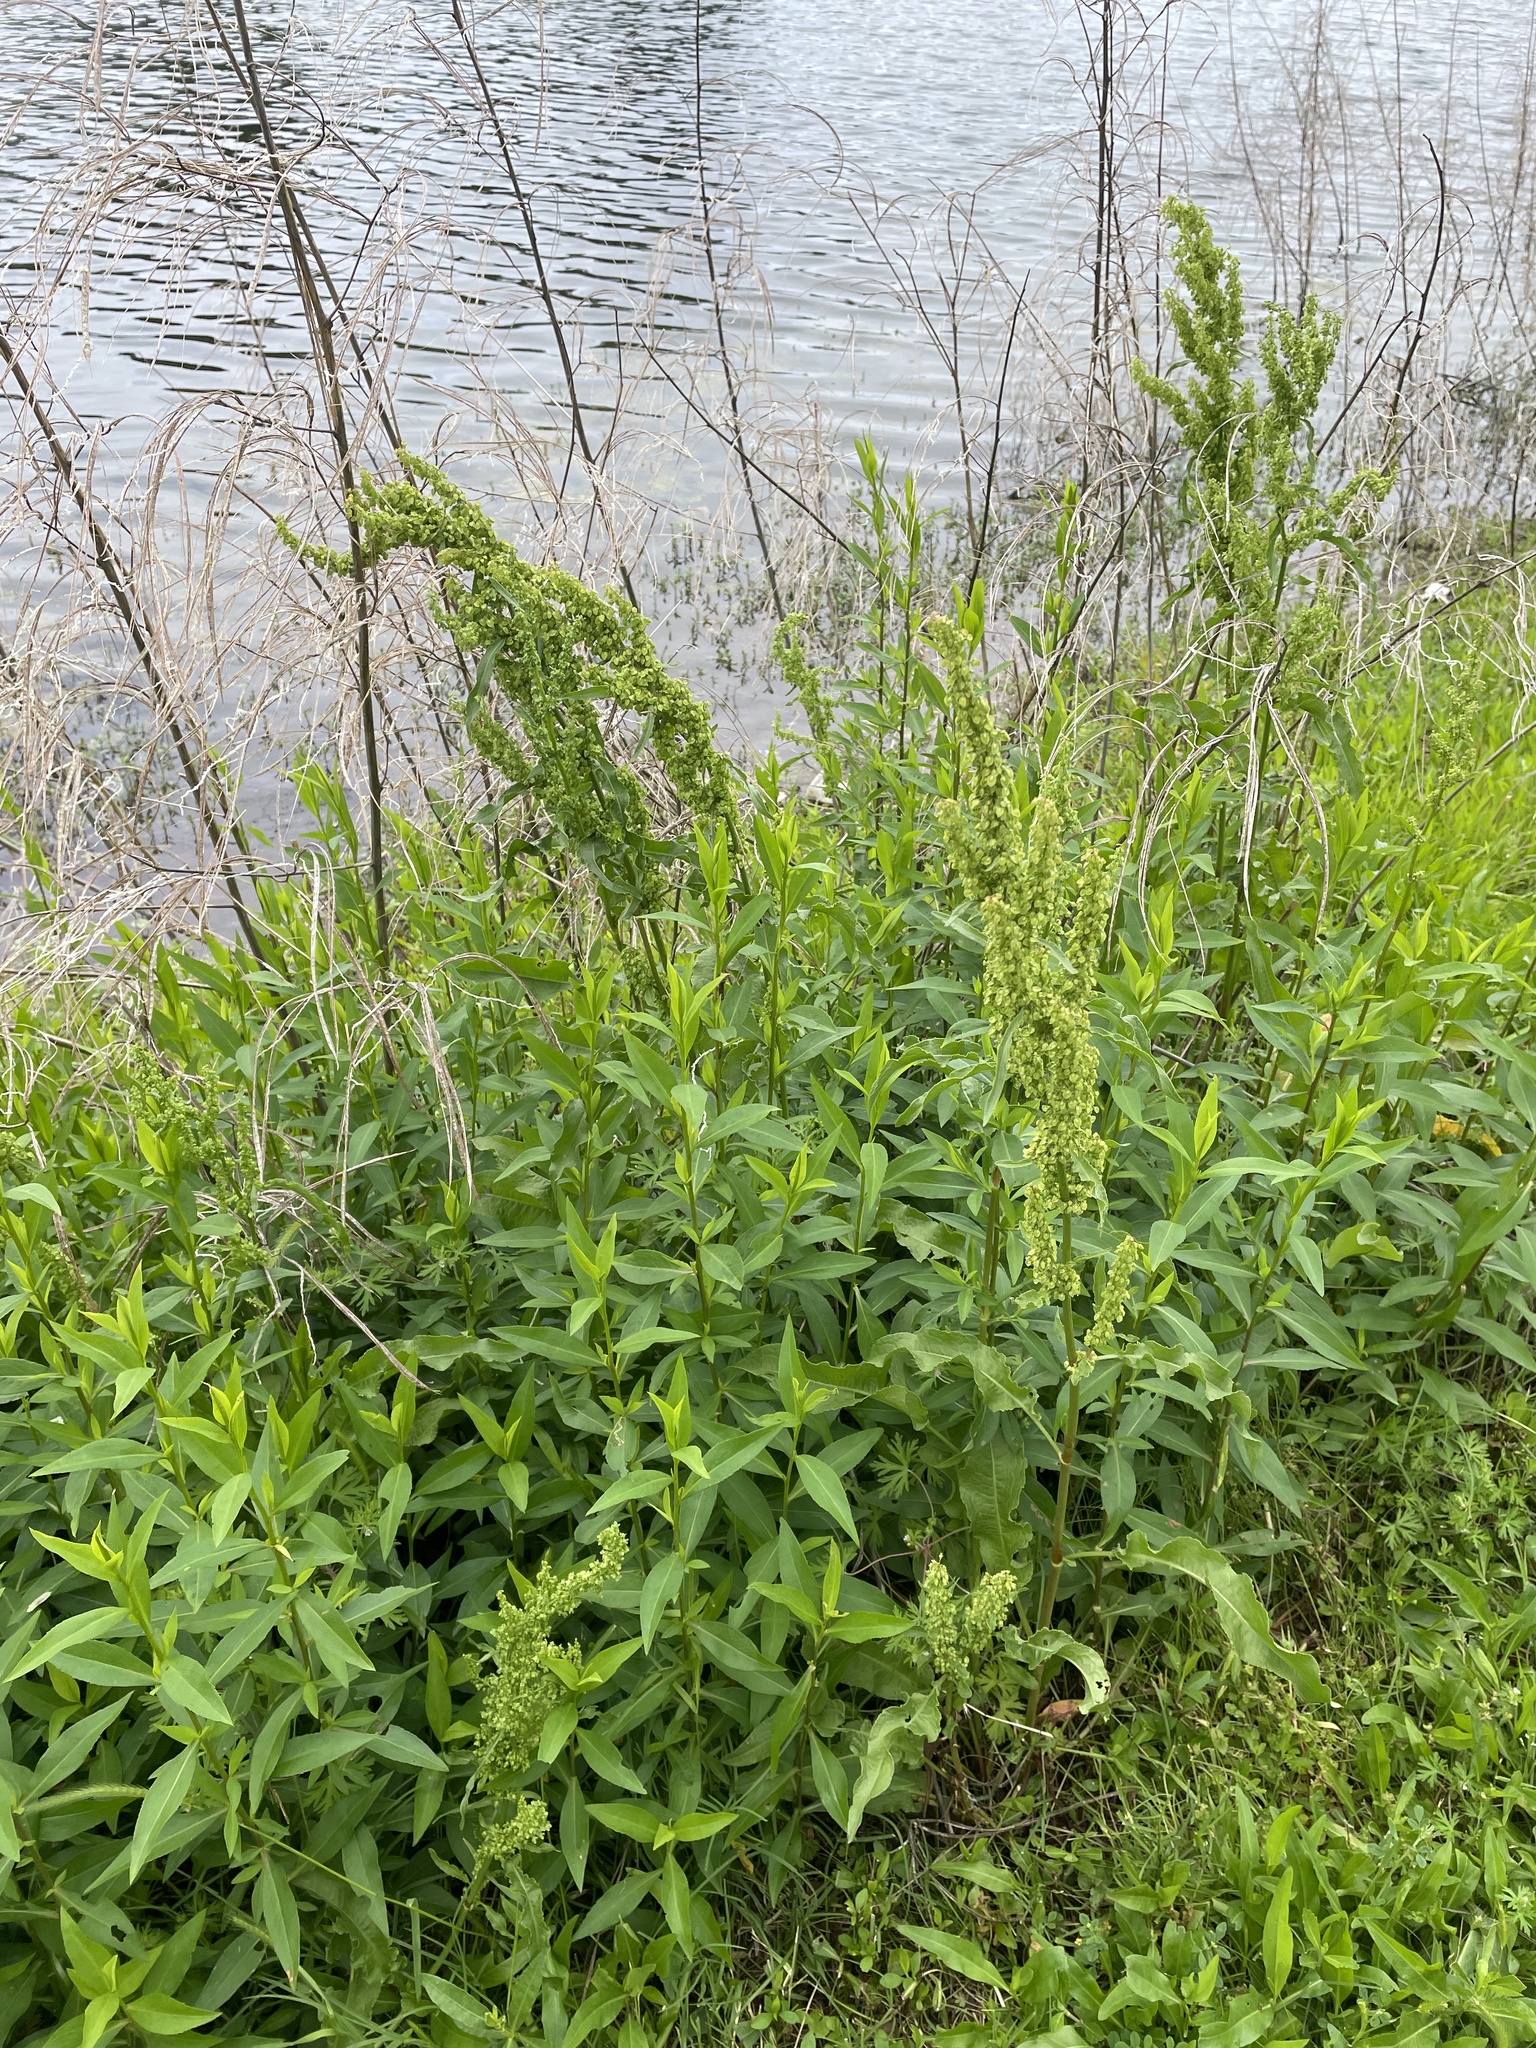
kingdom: Plantae
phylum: Tracheophyta
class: Magnoliopsida
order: Caryophyllales
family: Polygonaceae
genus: Rumex
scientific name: Rumex crispus
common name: Curled dock
